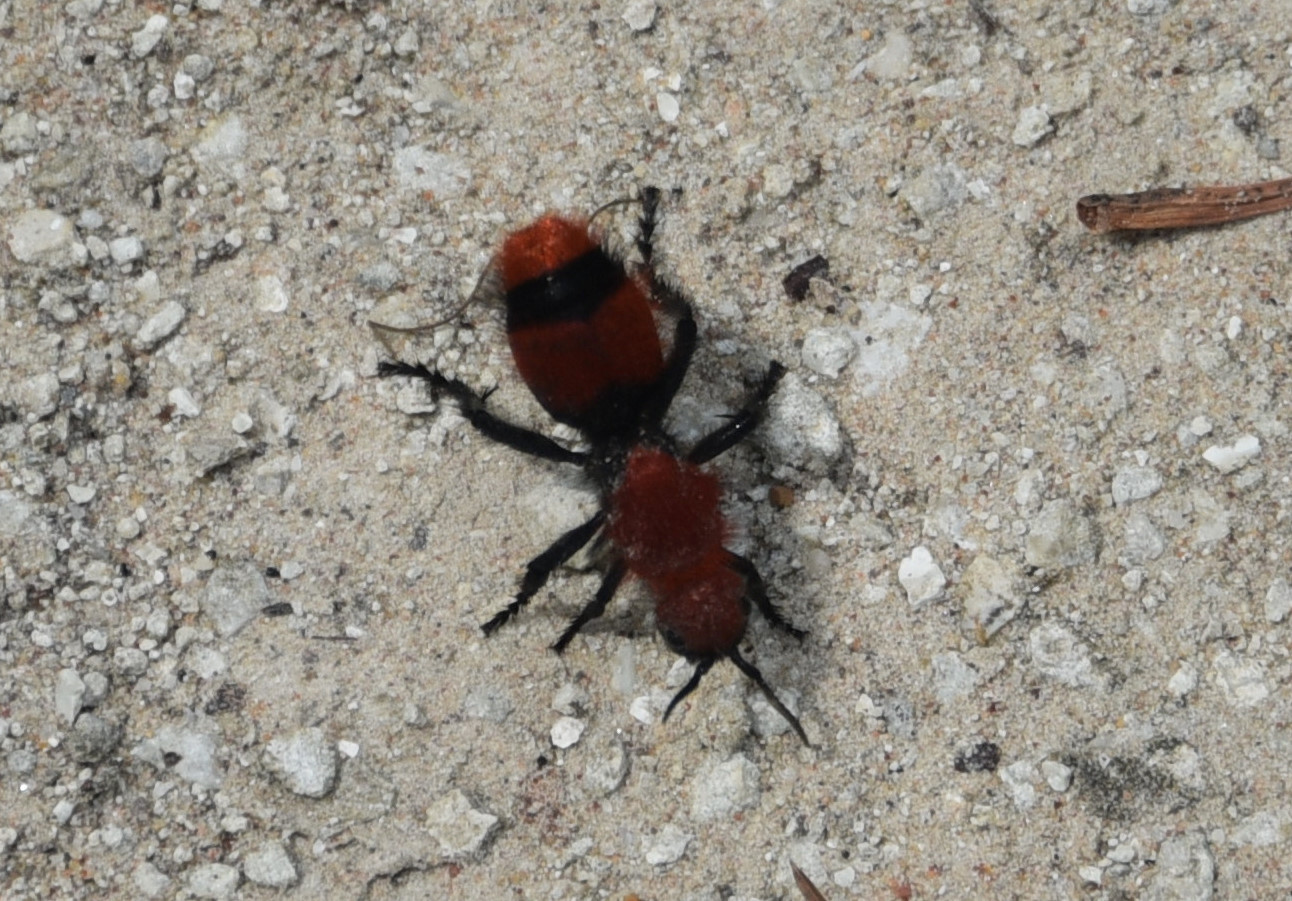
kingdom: Animalia
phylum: Arthropoda
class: Insecta
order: Hymenoptera
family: Mutillidae
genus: Dasymutilla
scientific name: Dasymutilla occidentalis
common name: Common eastern velvet ant
